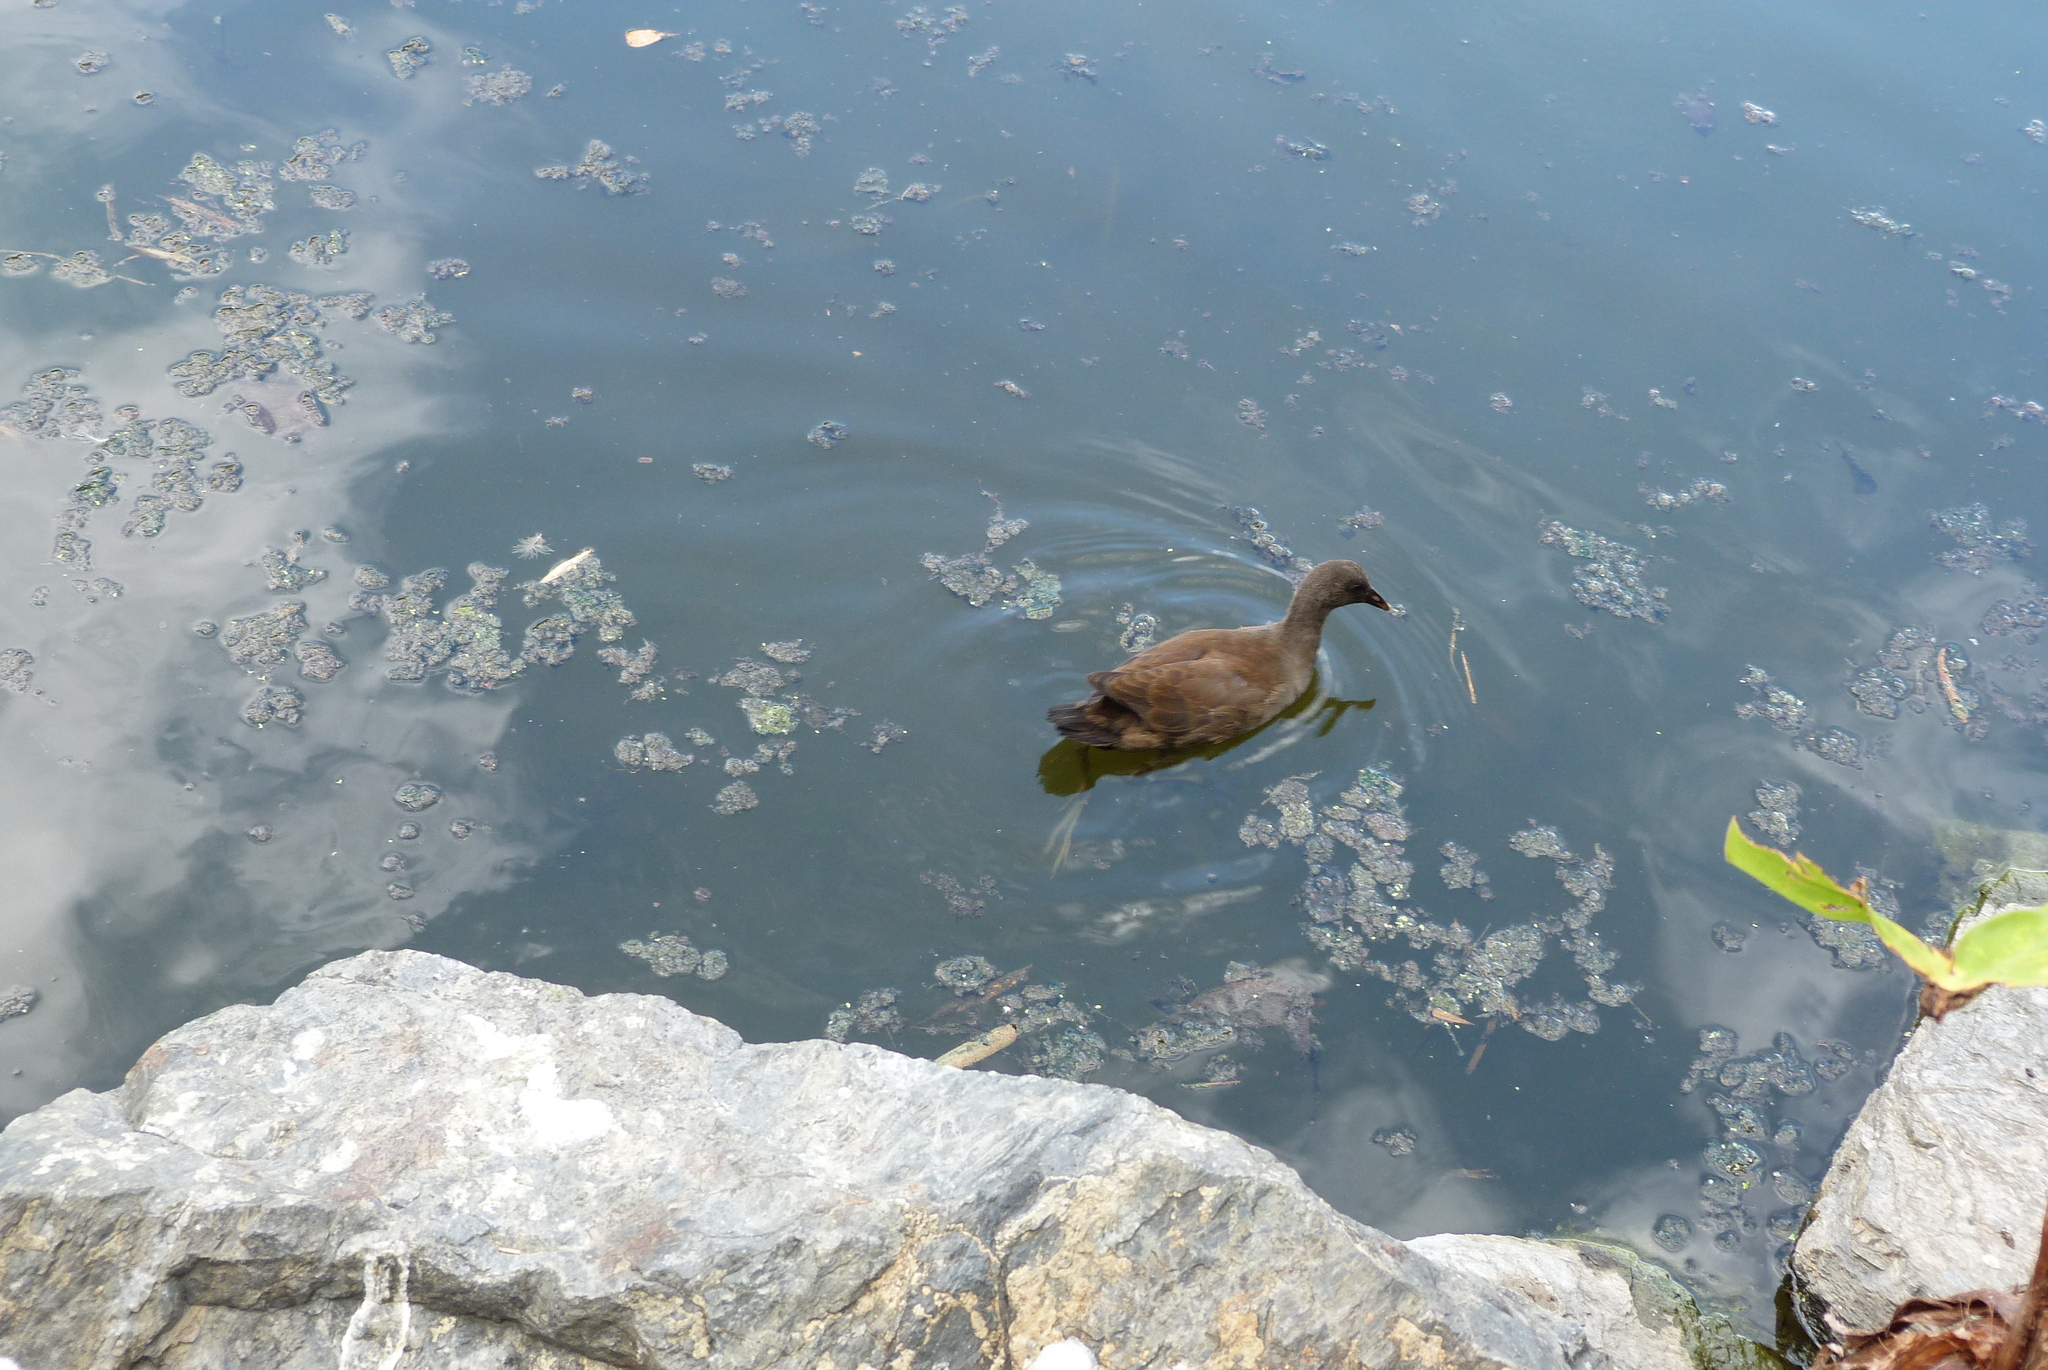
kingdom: Animalia
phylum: Chordata
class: Aves
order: Gruiformes
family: Rallidae
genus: Gallinula
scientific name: Gallinula tenebrosa
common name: Dusky moorhen
